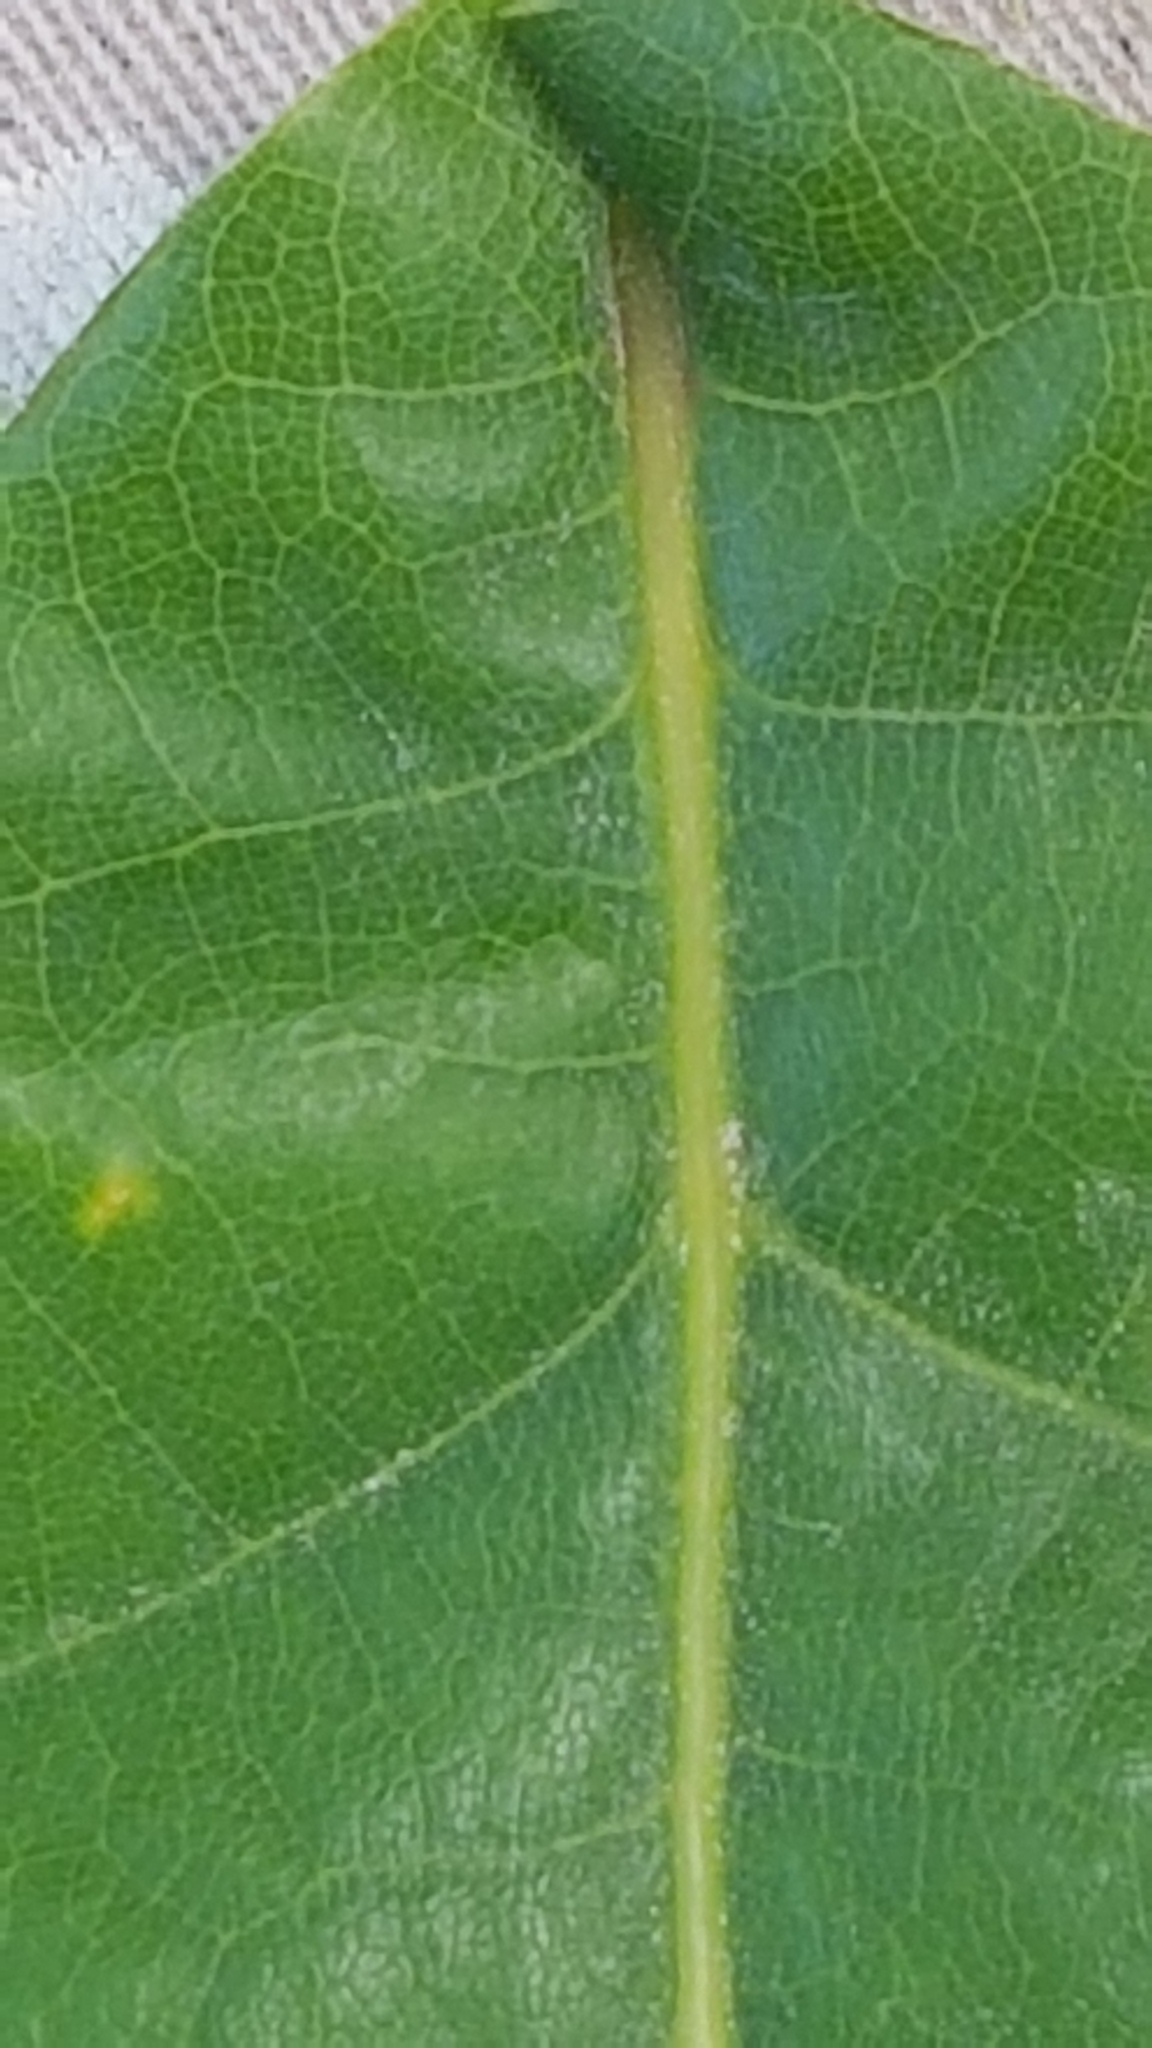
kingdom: Plantae
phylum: Tracheophyta
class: Magnoliopsida
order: Fagales
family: Fagaceae
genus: Quercus
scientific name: Quercus robur
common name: Pedunculate oak
